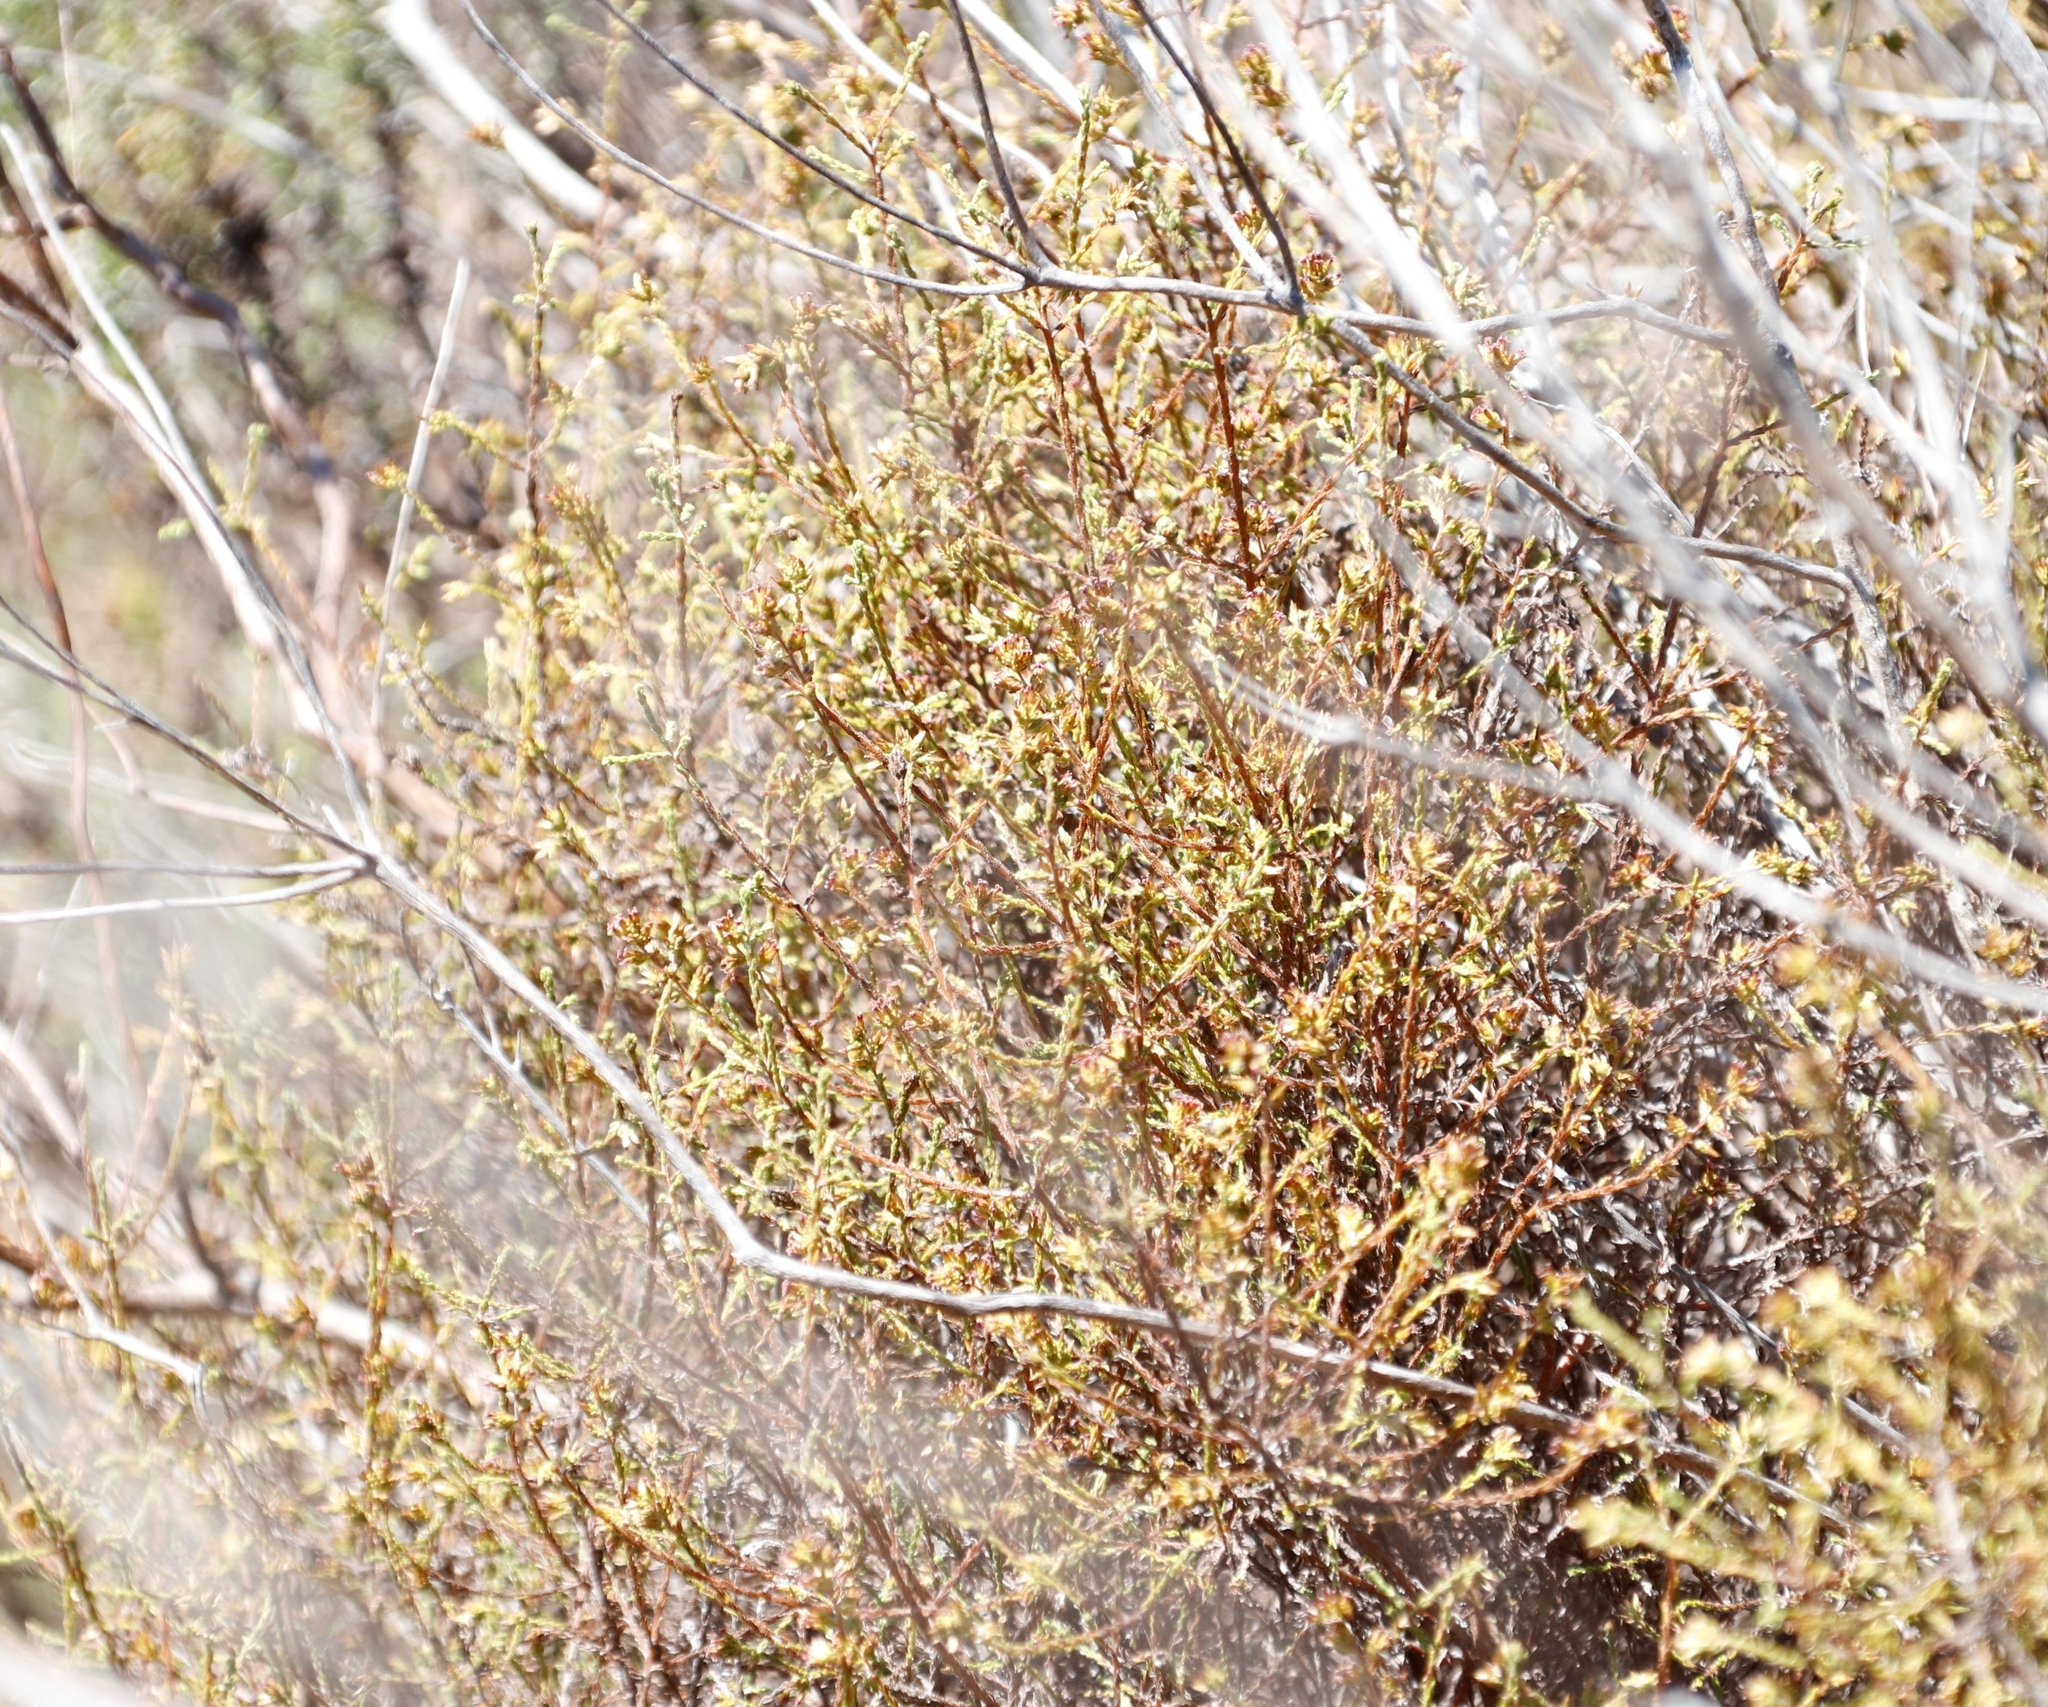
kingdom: Plantae
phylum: Tracheophyta
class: Magnoliopsida
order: Asterales
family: Asteraceae
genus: Myrovernix
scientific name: Myrovernix scaber
